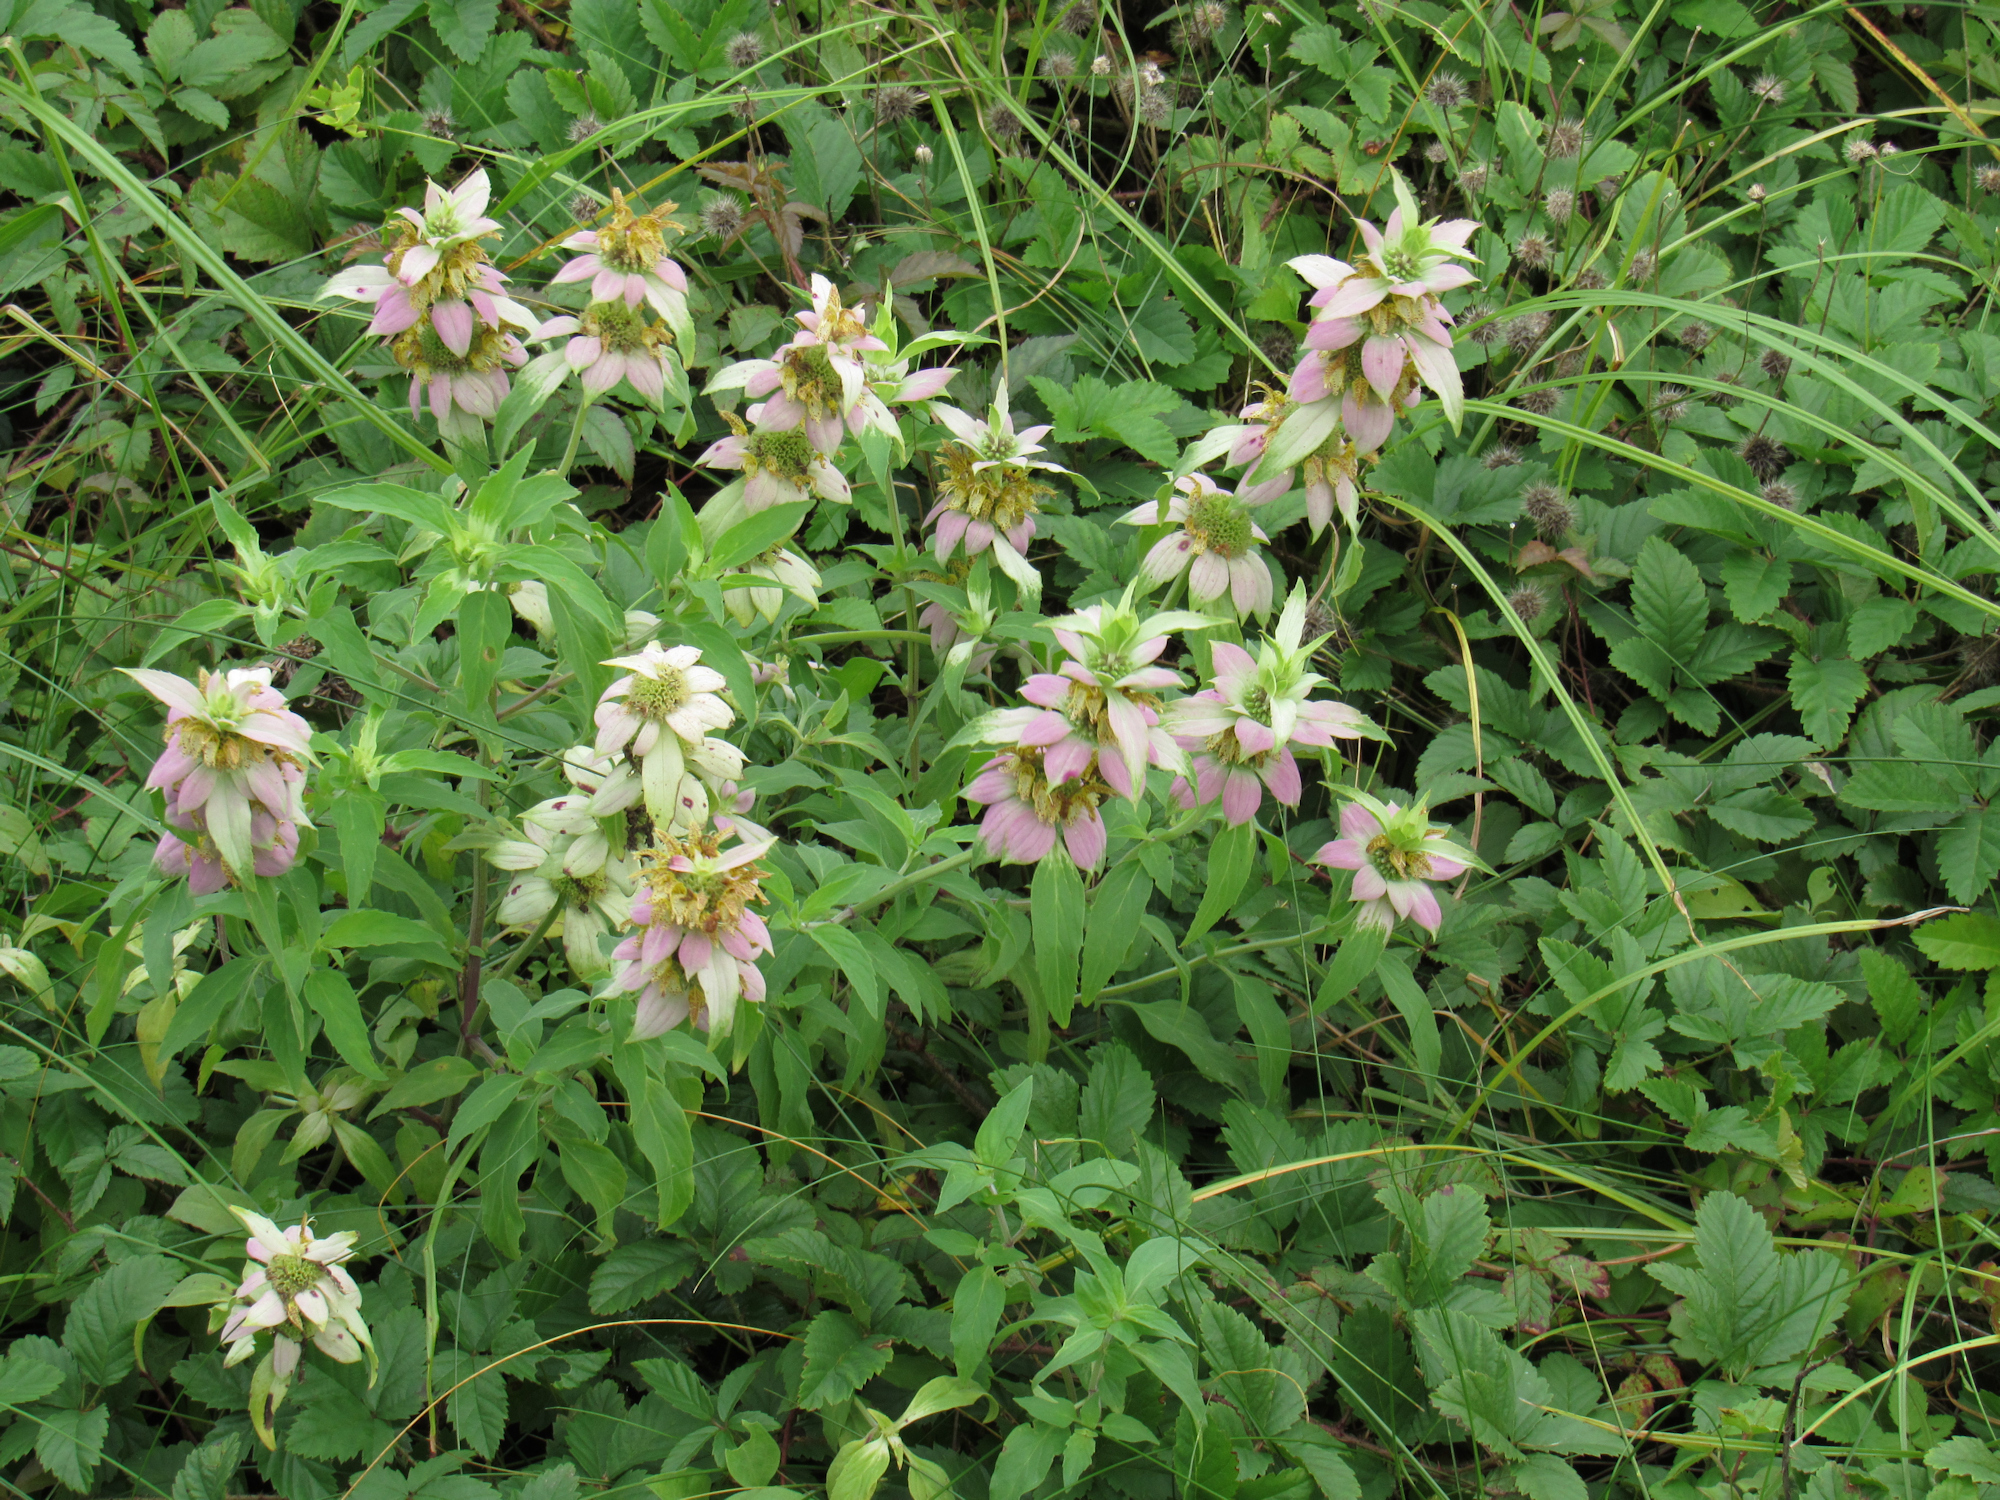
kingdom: Plantae
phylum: Tracheophyta
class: Magnoliopsida
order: Lamiales
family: Lamiaceae
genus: Monarda
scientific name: Monarda punctata
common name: Dotted monarda
